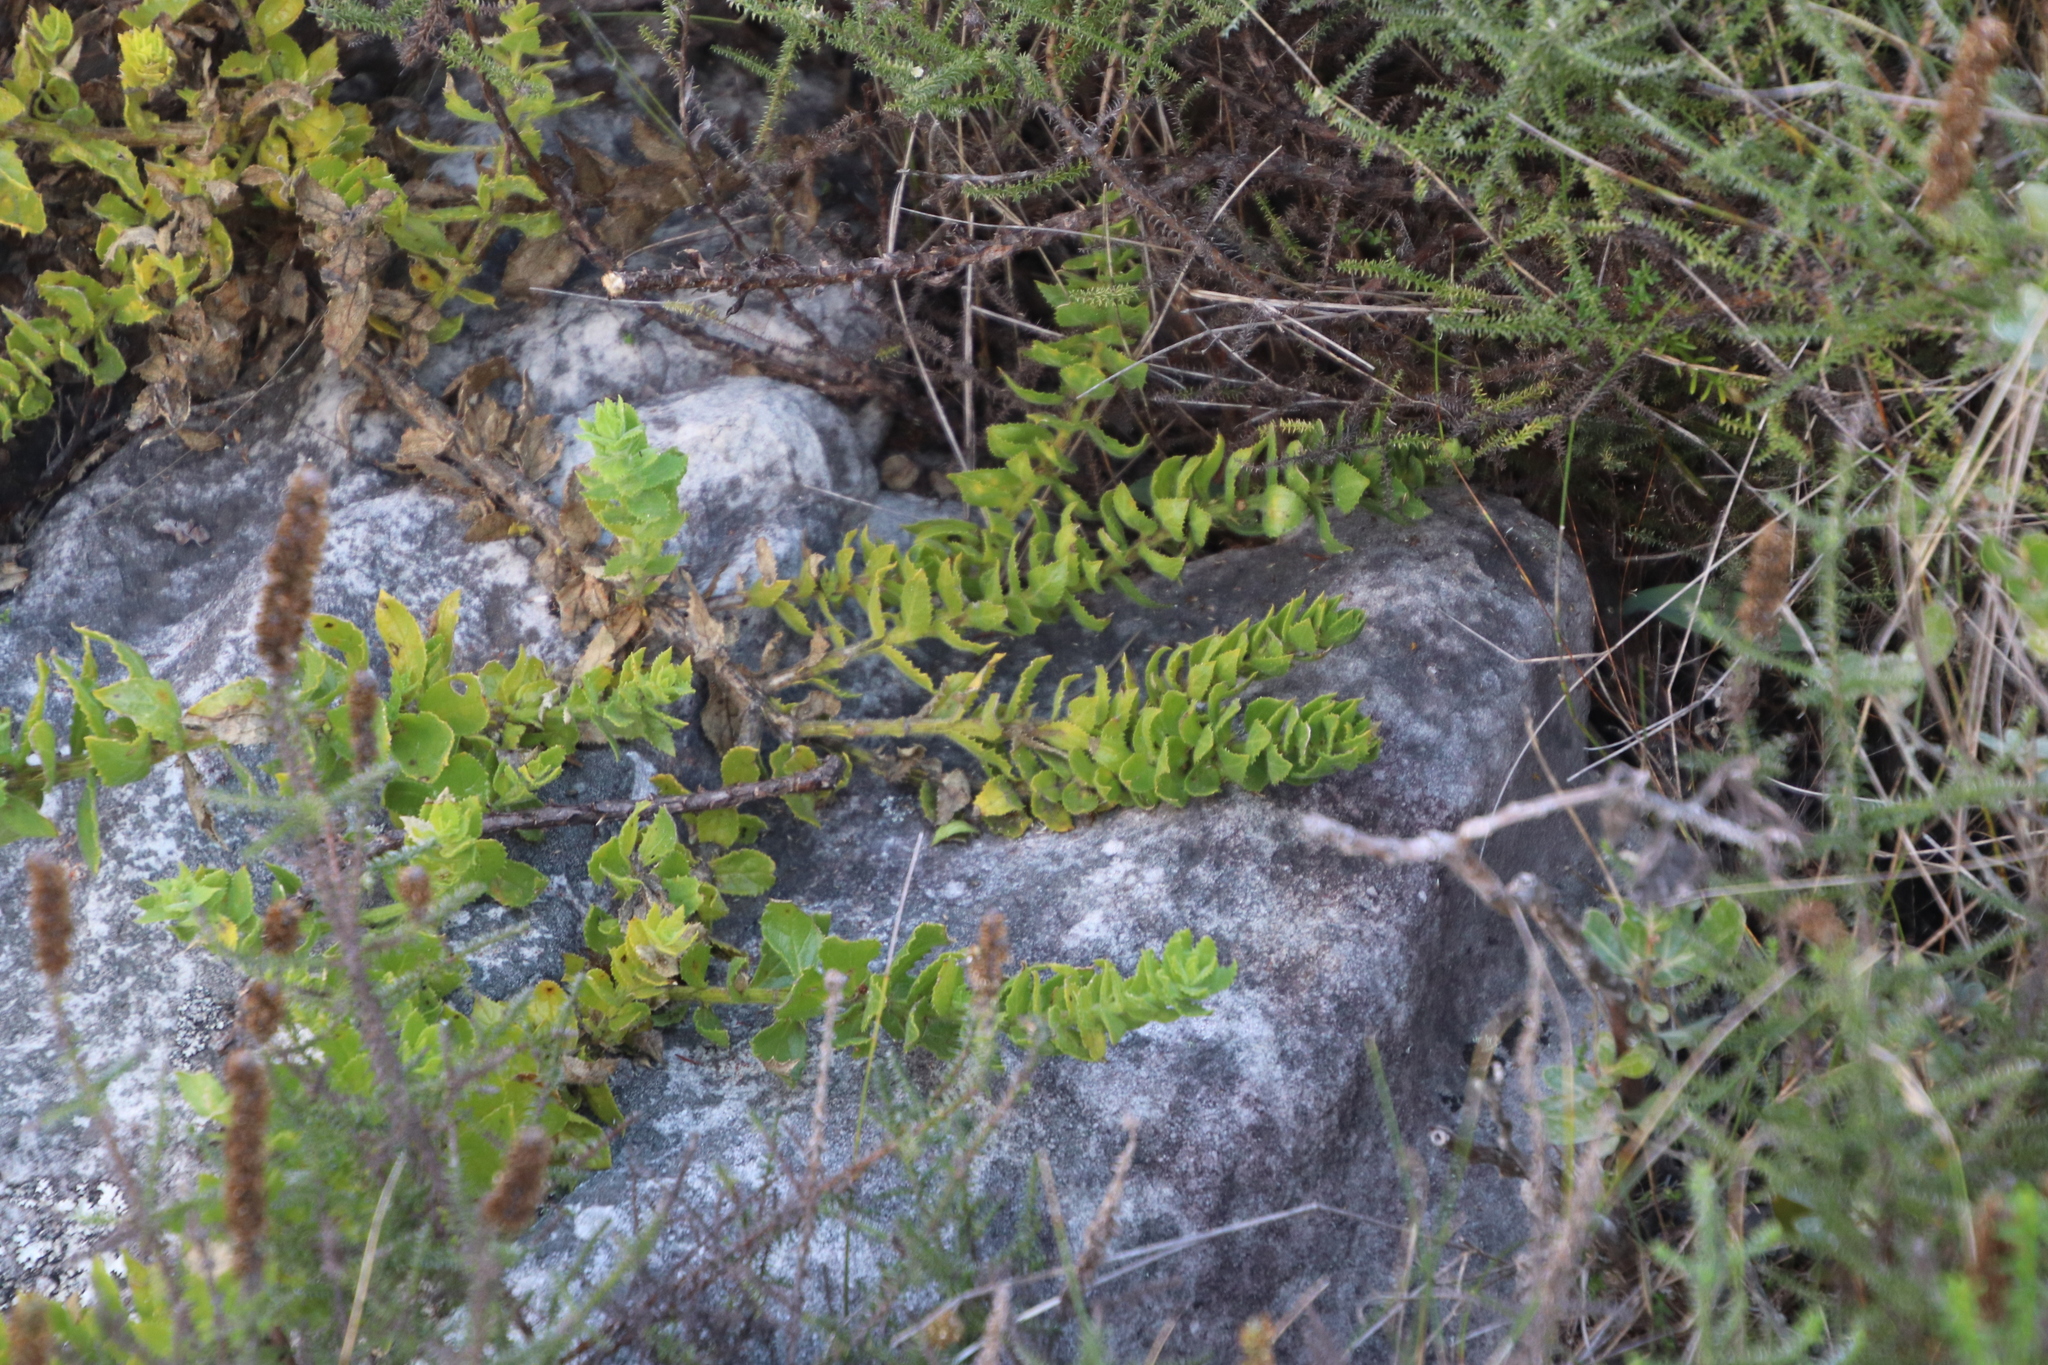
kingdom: Plantae
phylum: Tracheophyta
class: Magnoliopsida
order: Lamiales
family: Scrophulariaceae
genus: Oftia
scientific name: Oftia africana
